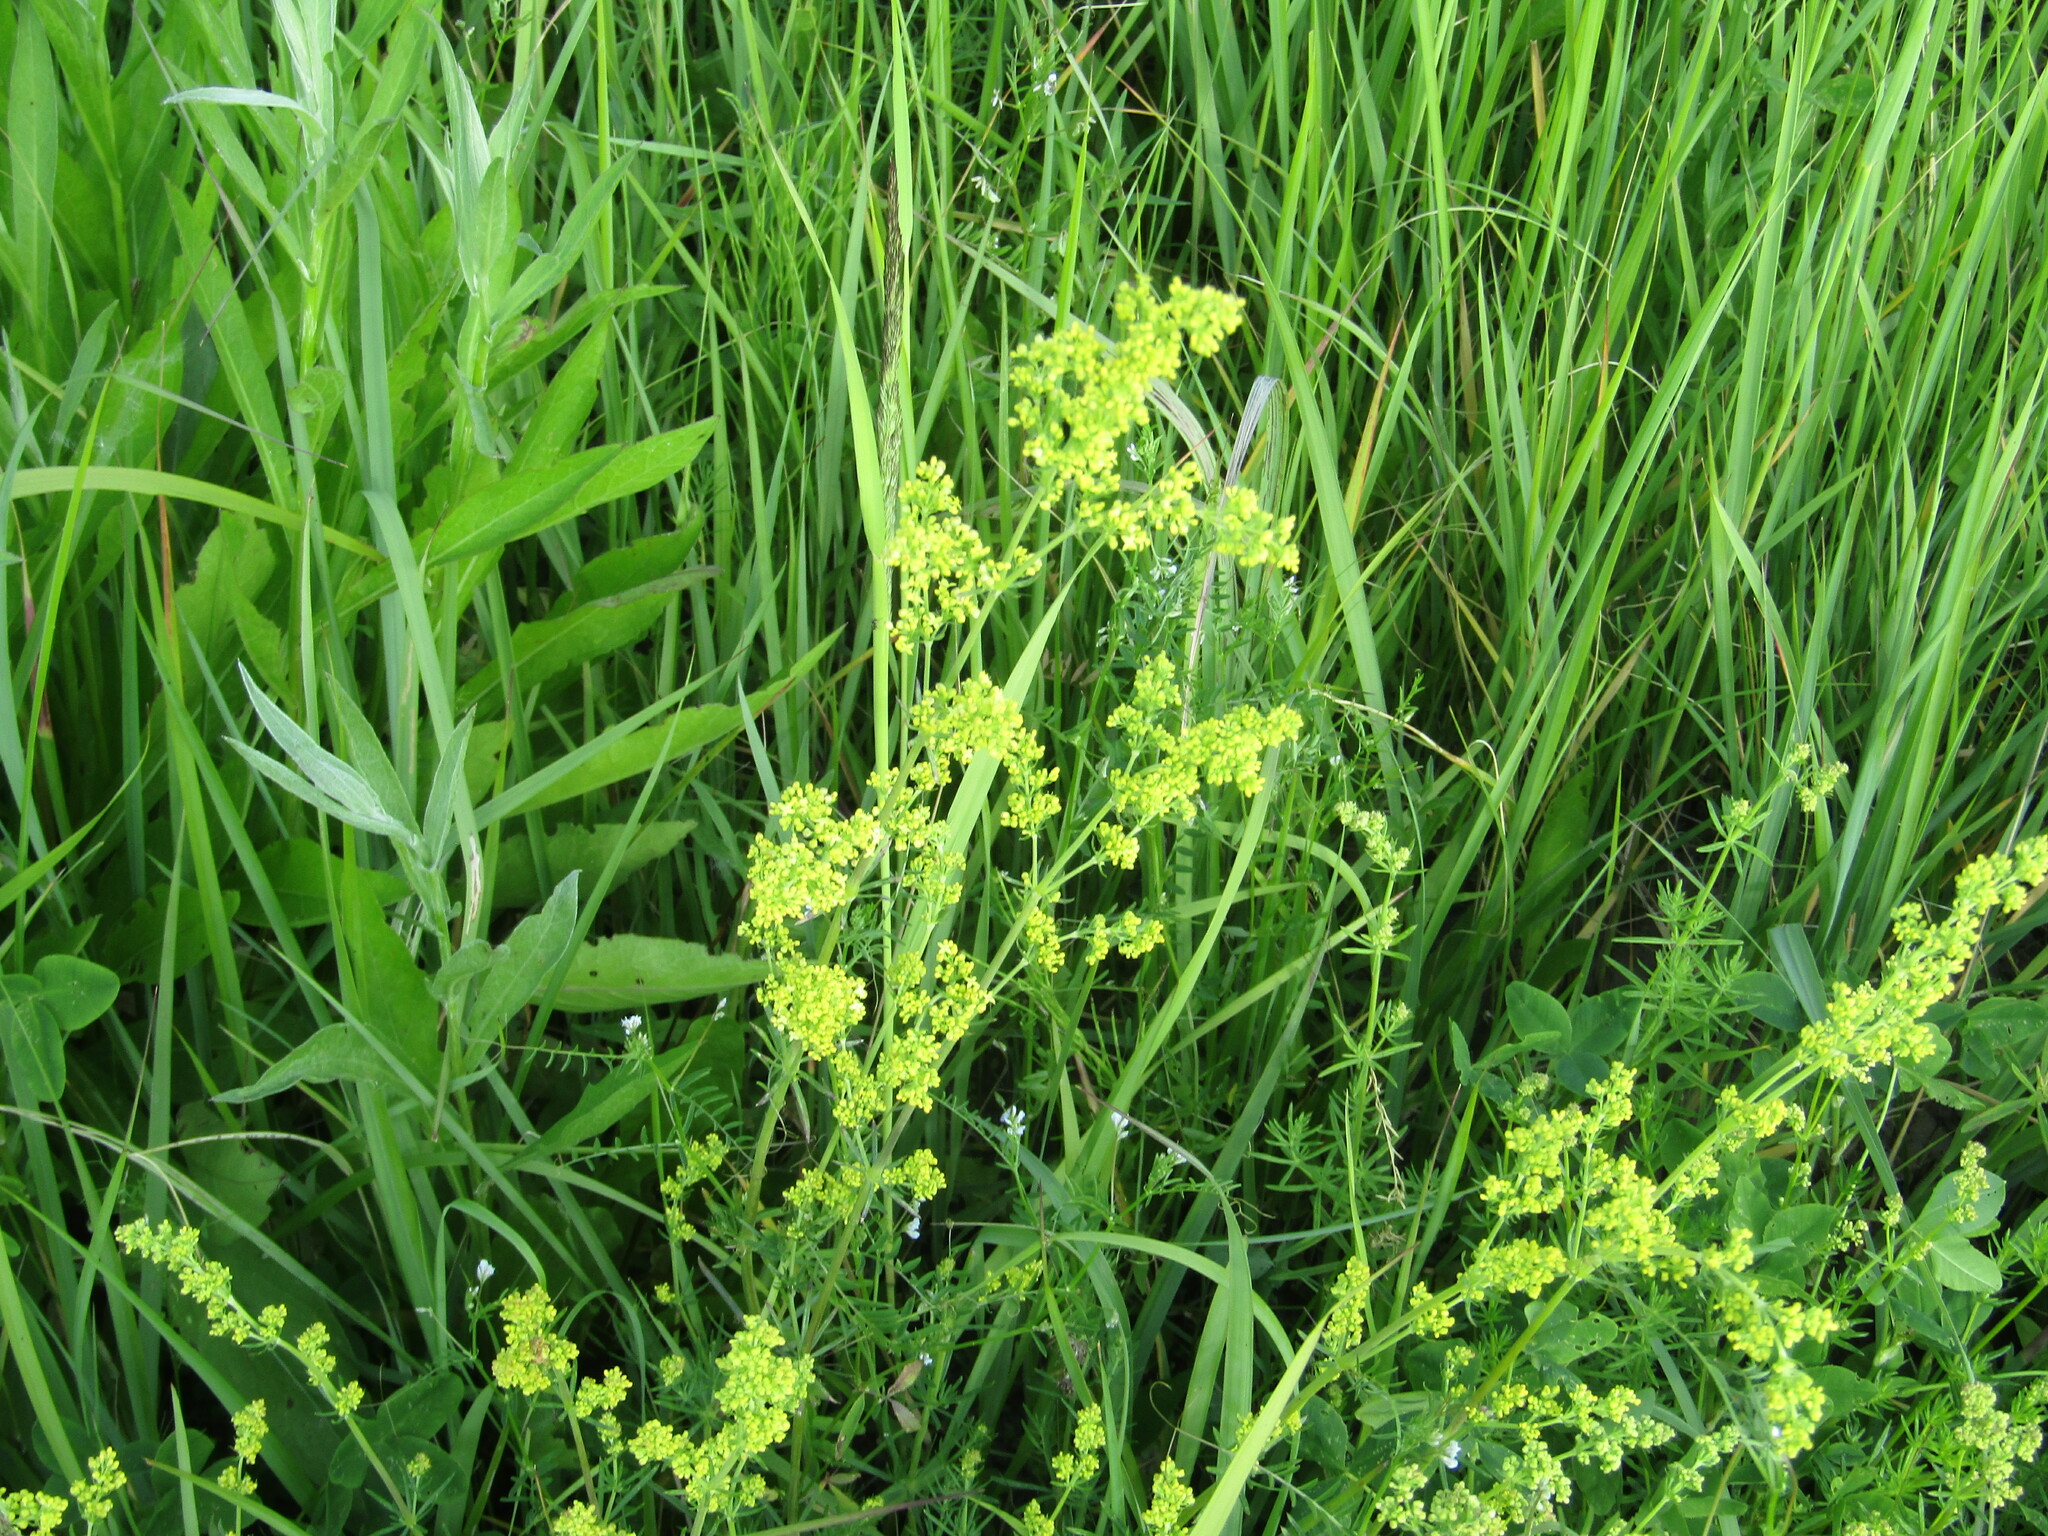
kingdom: Plantae
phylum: Tracheophyta
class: Magnoliopsida
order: Gentianales
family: Rubiaceae
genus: Galium
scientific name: Galium verum
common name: Lady's bedstraw
